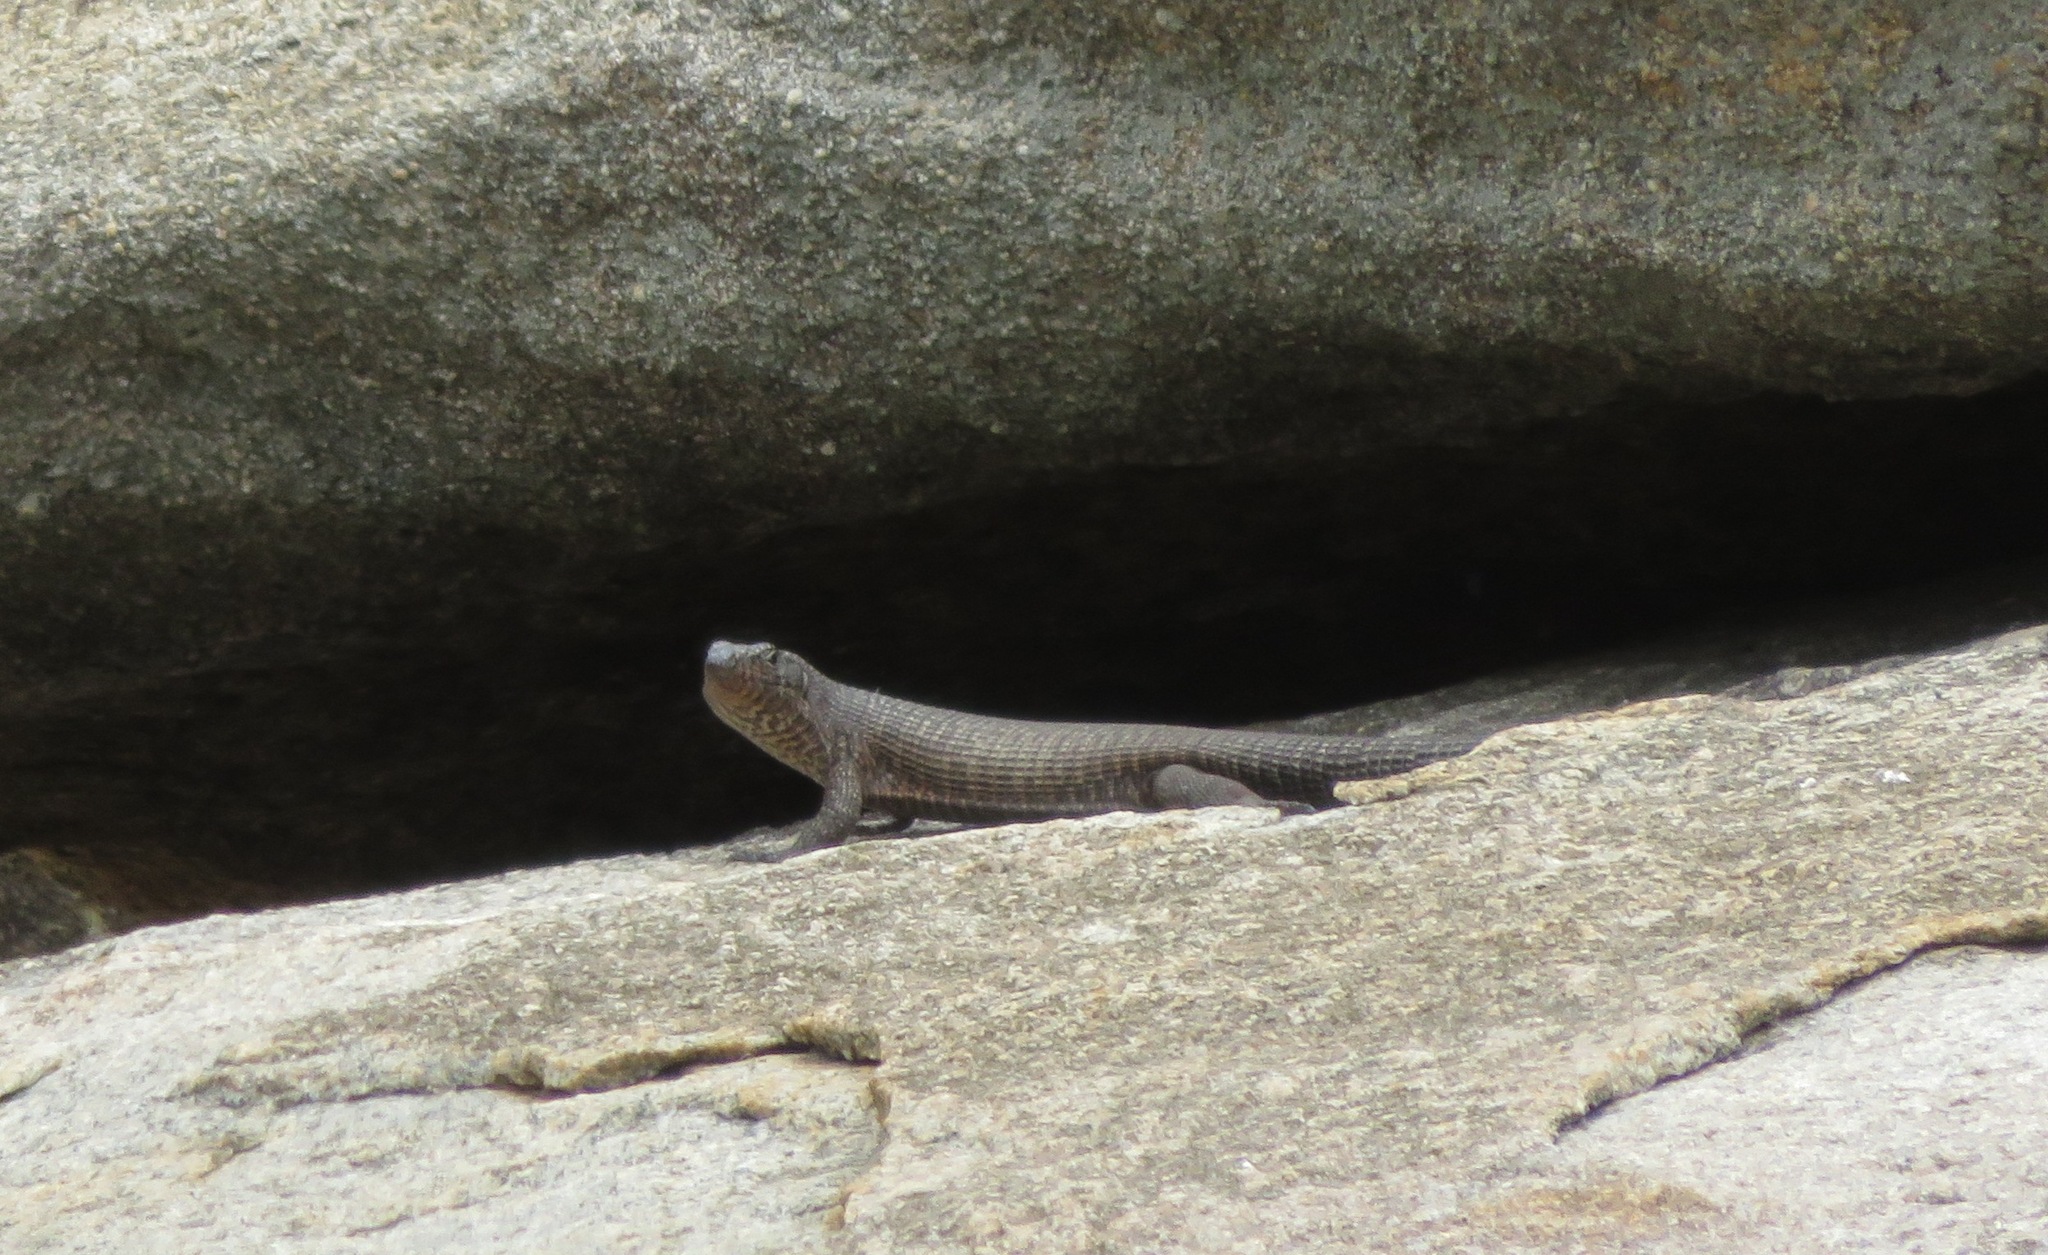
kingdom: Animalia
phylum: Chordata
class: Squamata
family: Gerrhosauridae
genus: Matobosaurus
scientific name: Matobosaurus validus
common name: Common giant plated lizard
